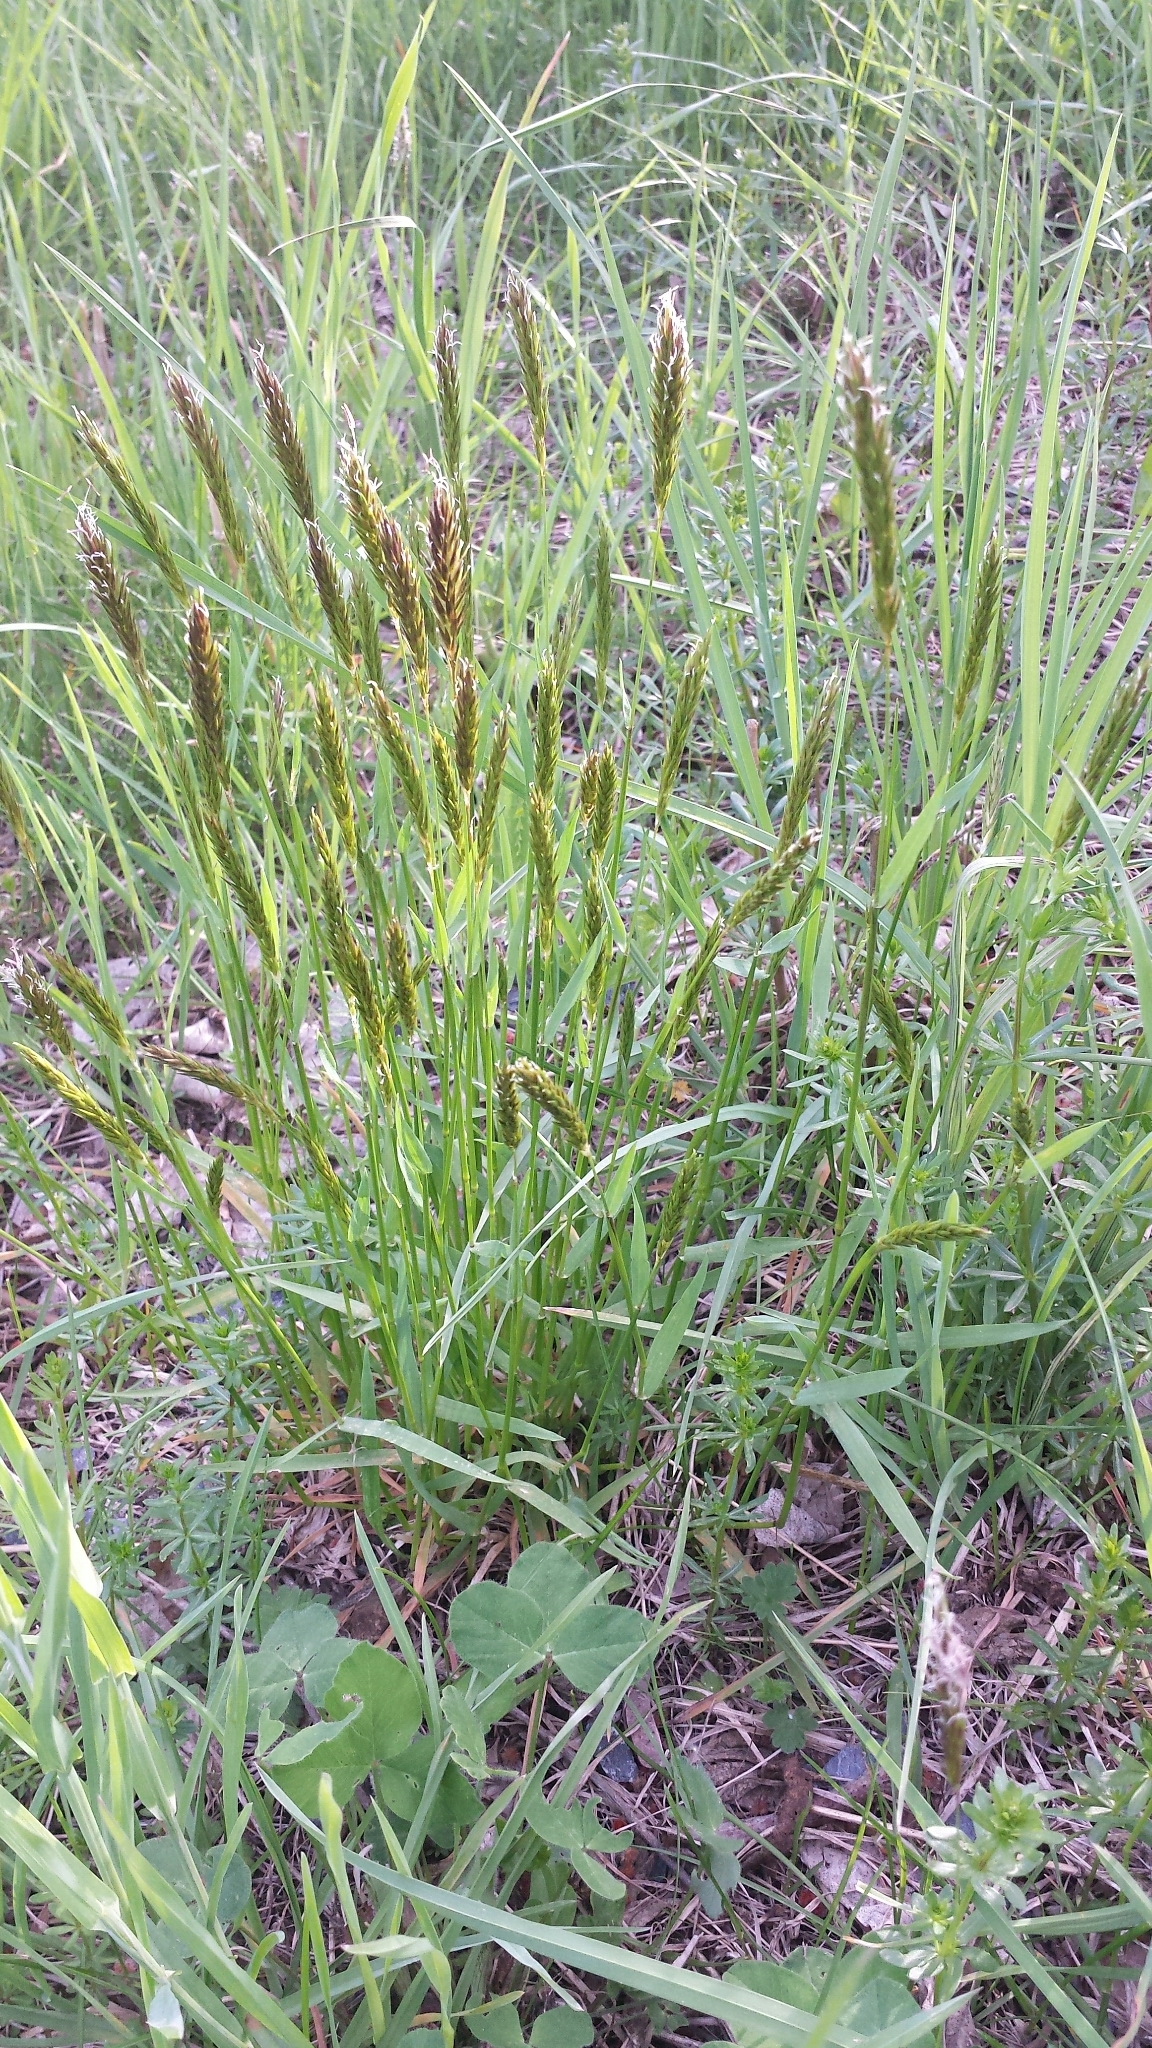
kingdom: Plantae
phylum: Tracheophyta
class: Liliopsida
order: Poales
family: Poaceae
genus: Anthoxanthum
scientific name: Anthoxanthum odoratum
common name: Sweet vernalgrass
